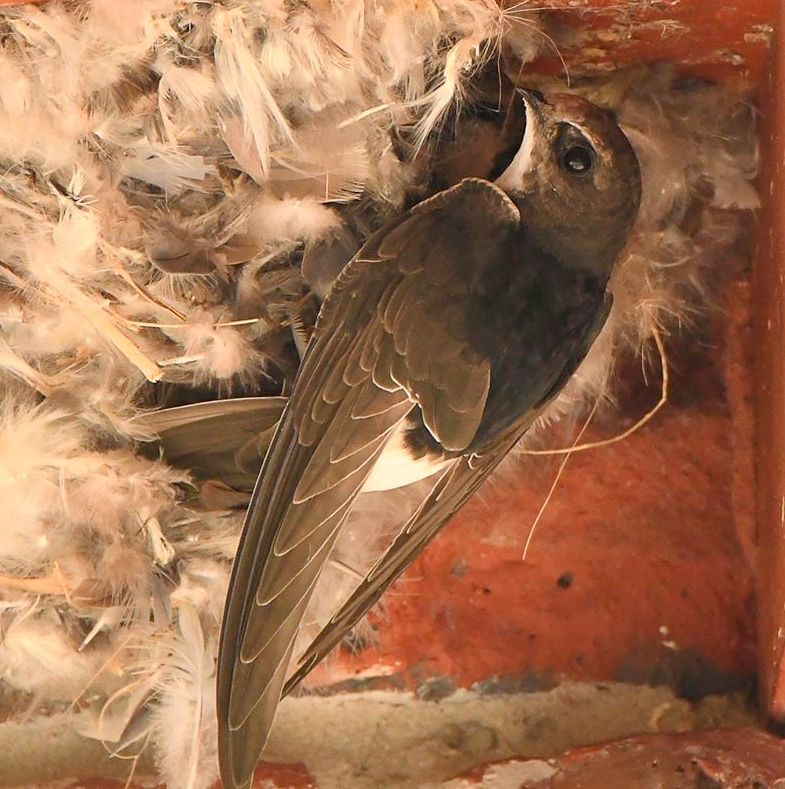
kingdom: Animalia
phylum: Chordata
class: Aves
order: Apodiformes
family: Apodidae
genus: Apus
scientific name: Apus affinis
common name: Little swift
